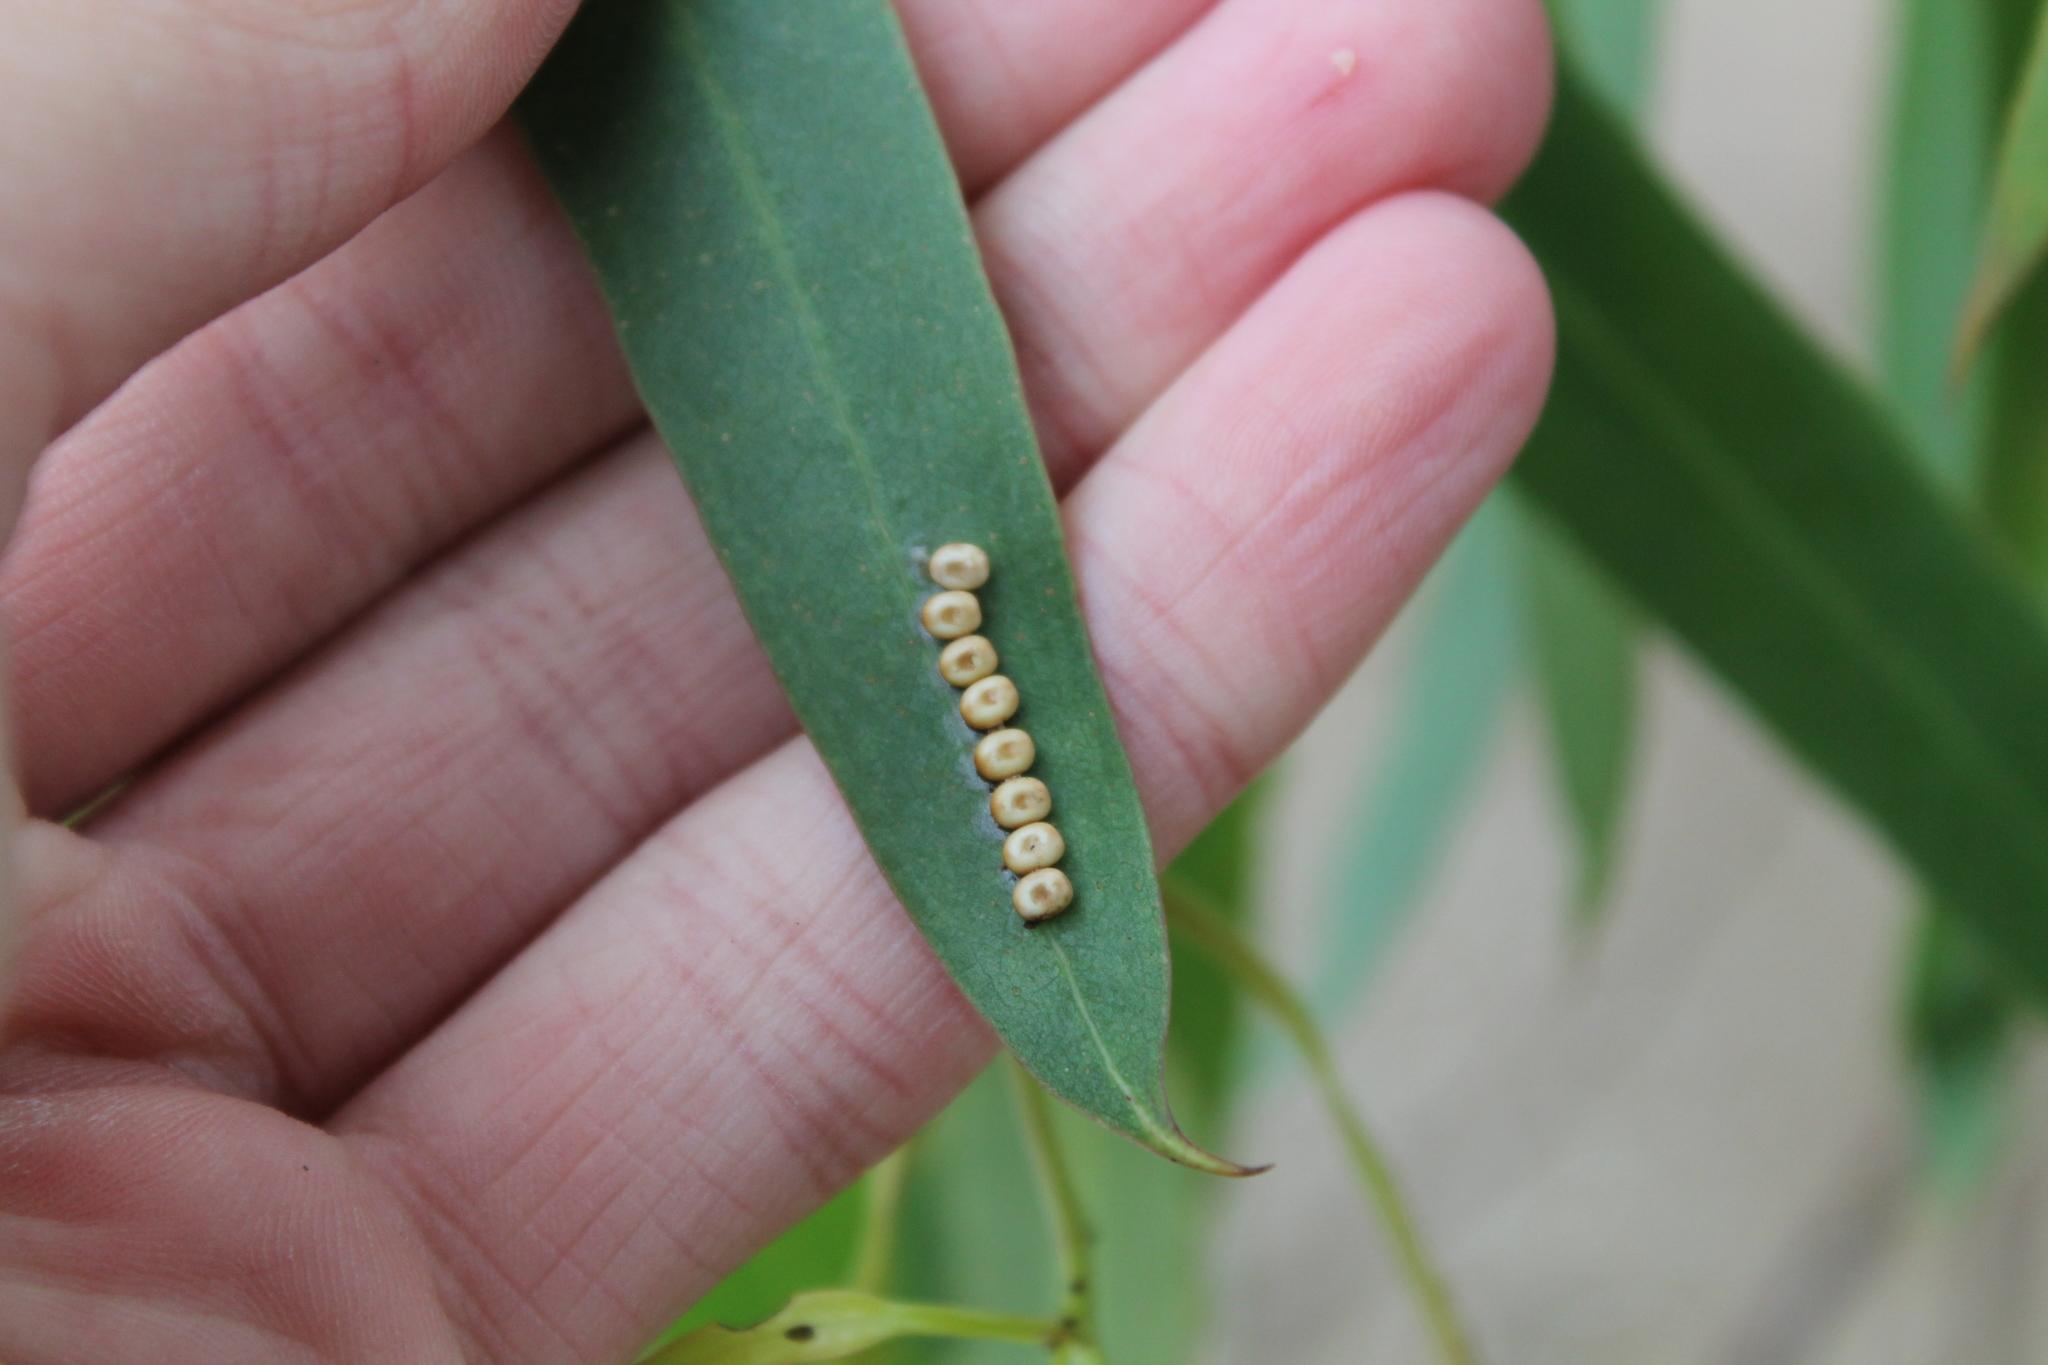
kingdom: Animalia
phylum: Arthropoda
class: Insecta
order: Lepidoptera
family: Saturniidae
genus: Opodiphthera
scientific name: Opodiphthera
